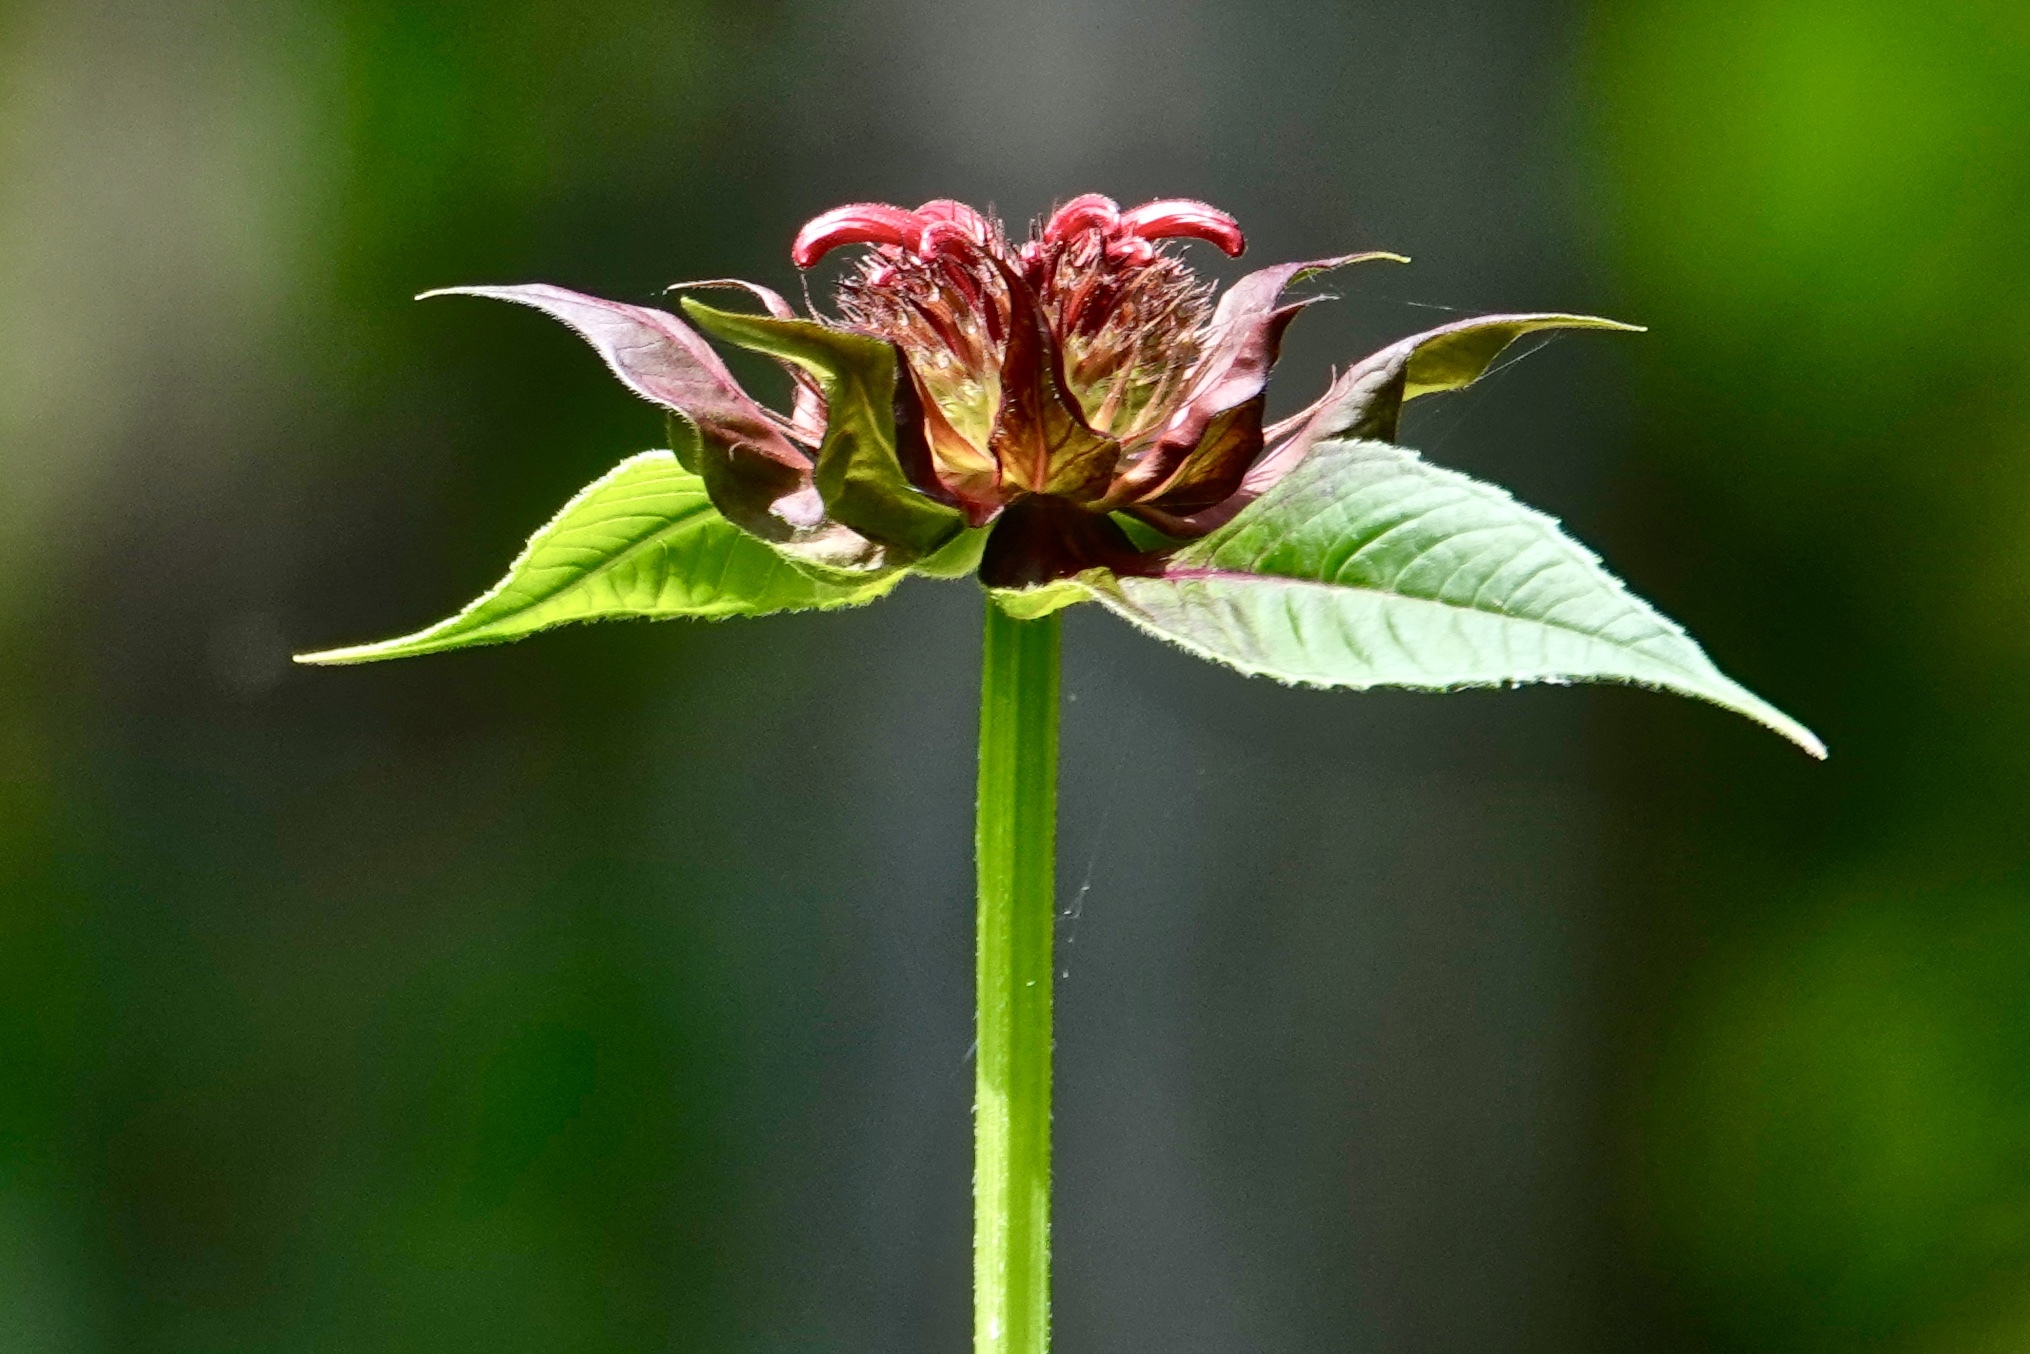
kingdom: Plantae
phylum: Tracheophyta
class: Magnoliopsida
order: Lamiales
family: Lamiaceae
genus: Monarda
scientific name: Monarda didyma
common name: Beebalm
